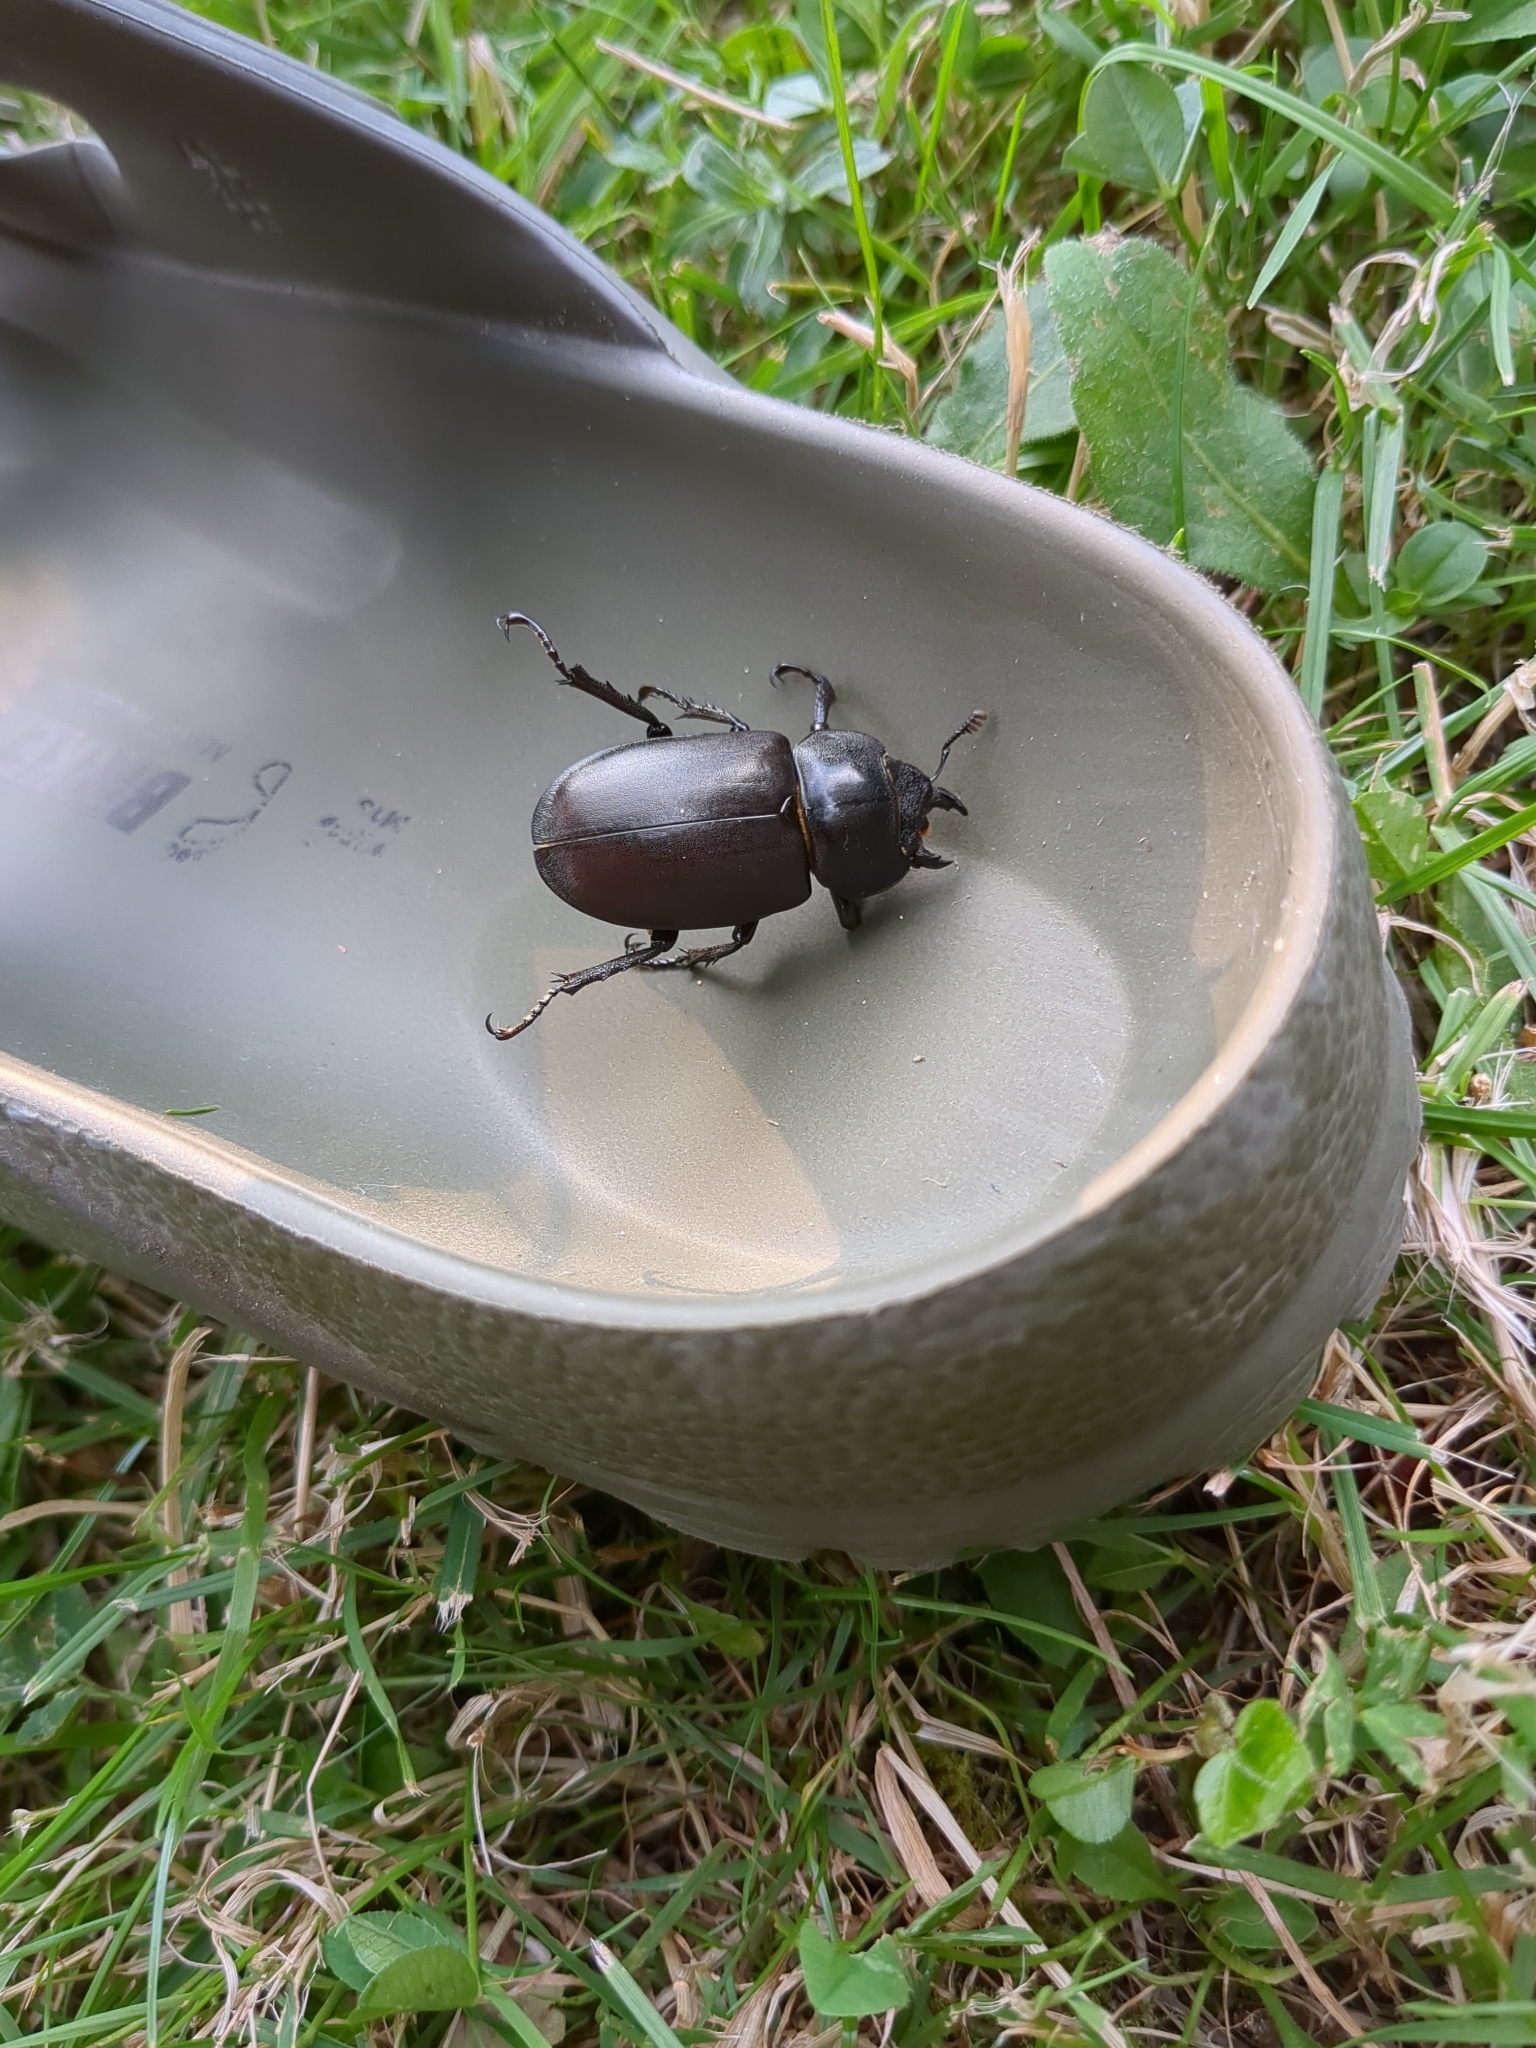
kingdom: Animalia
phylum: Arthropoda
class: Insecta
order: Coleoptera
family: Lucanidae
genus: Lucanus
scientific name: Lucanus cervus
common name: Stag beetle
